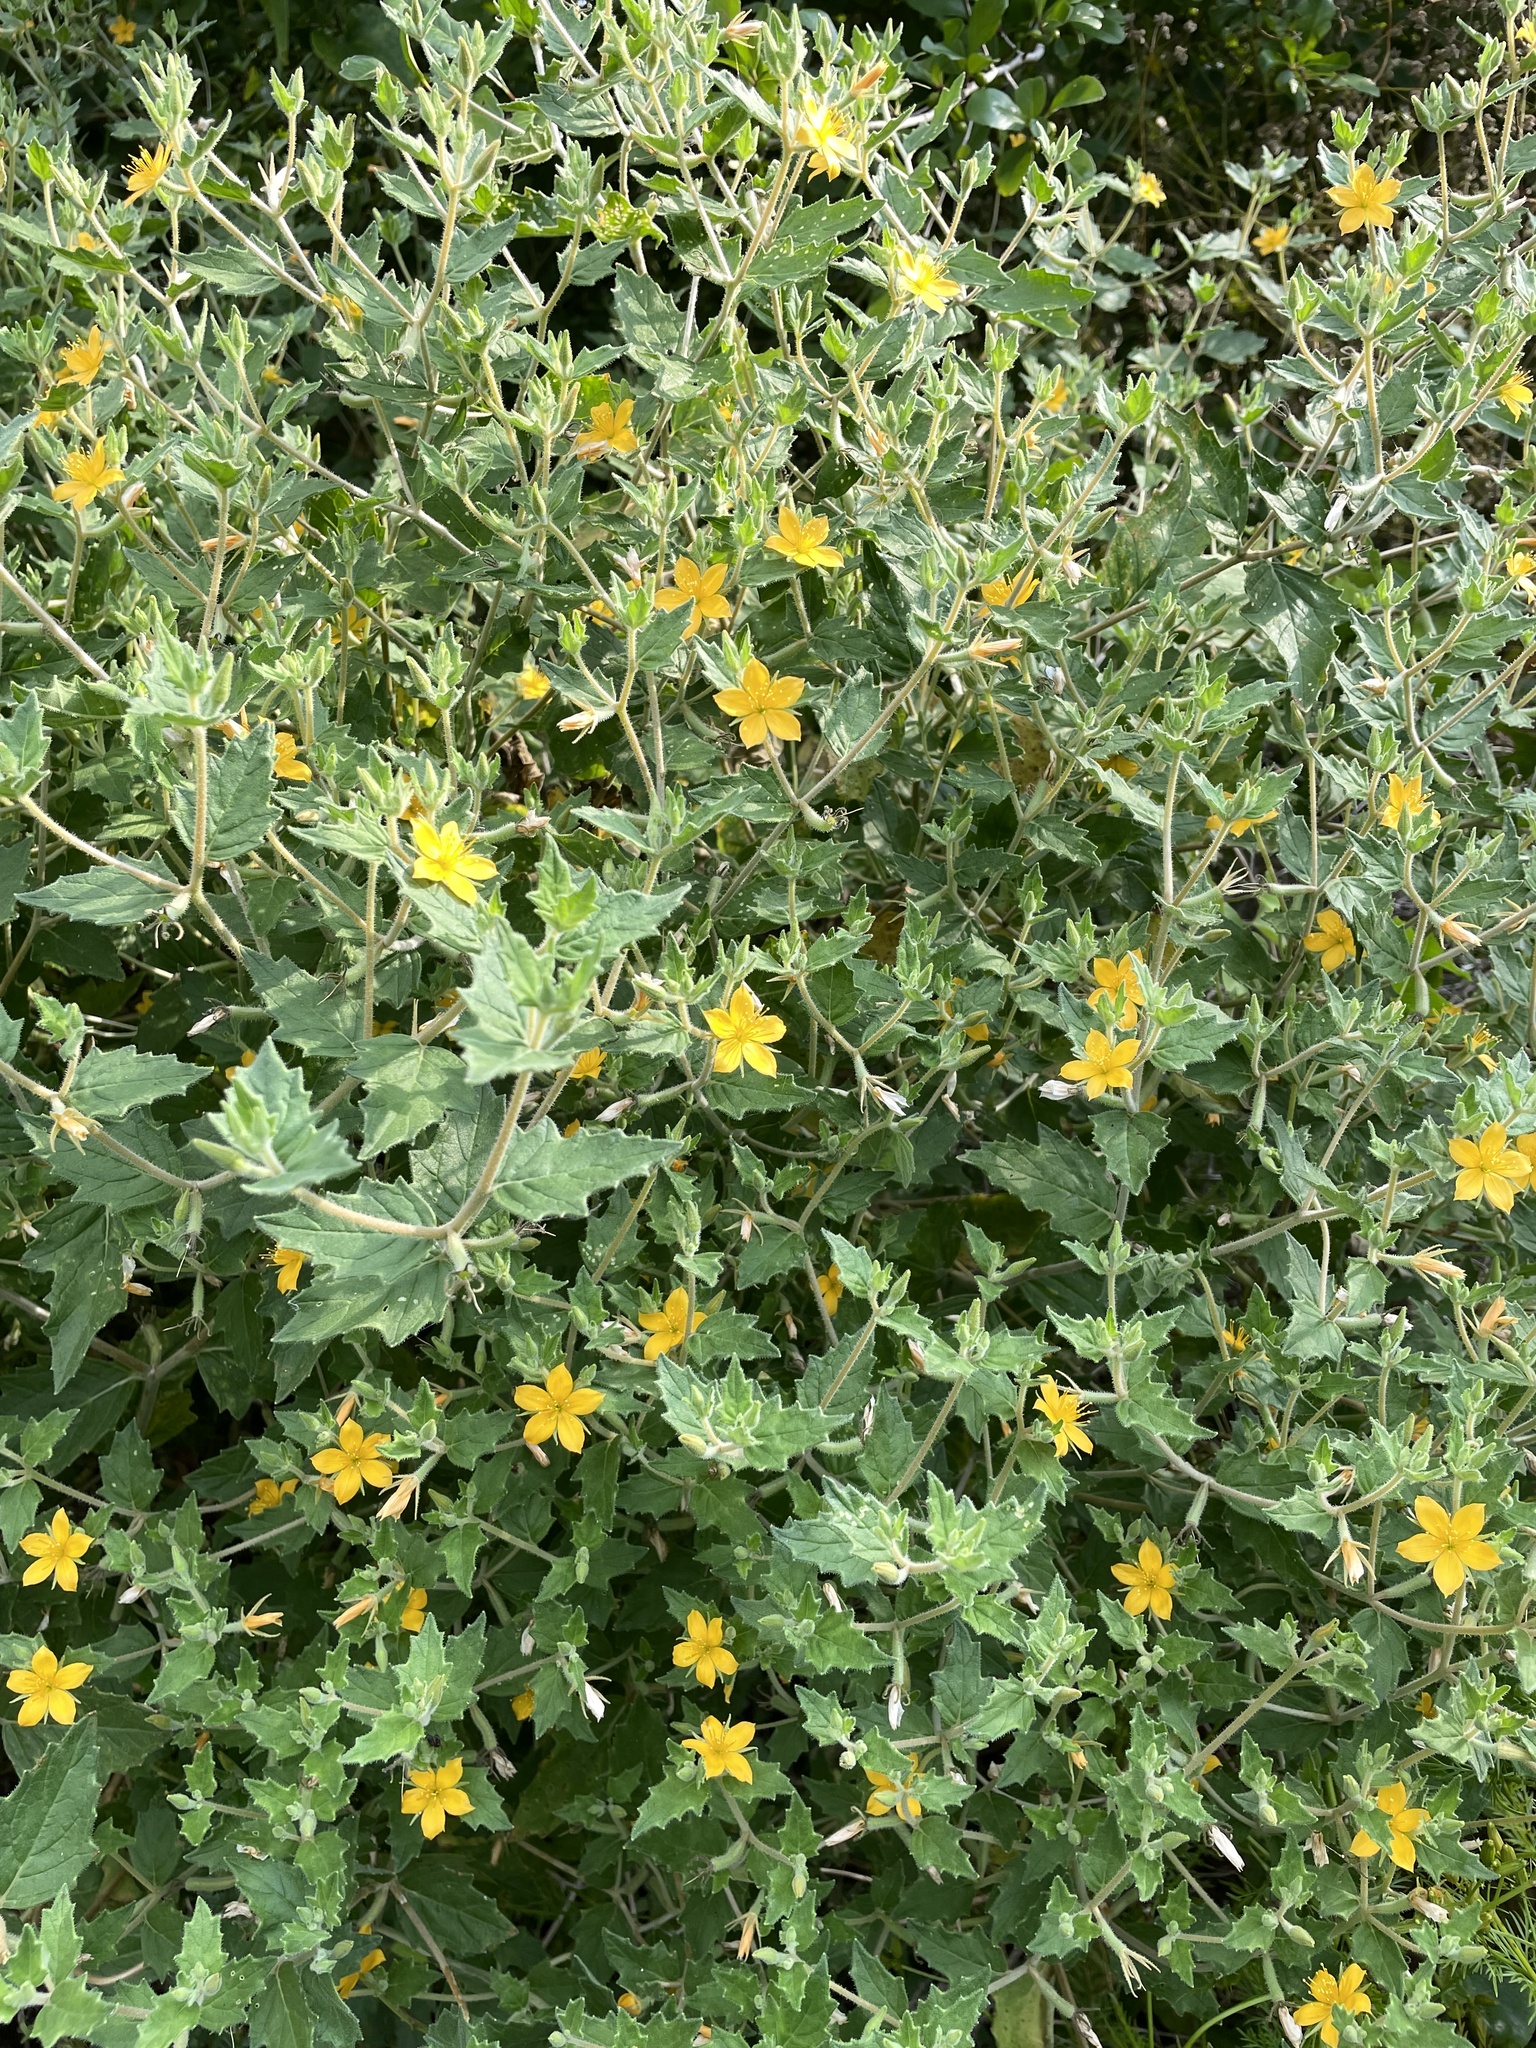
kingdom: Plantae
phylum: Tracheophyta
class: Magnoliopsida
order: Cornales
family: Loasaceae
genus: Mentzelia
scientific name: Mentzelia oligosperma
